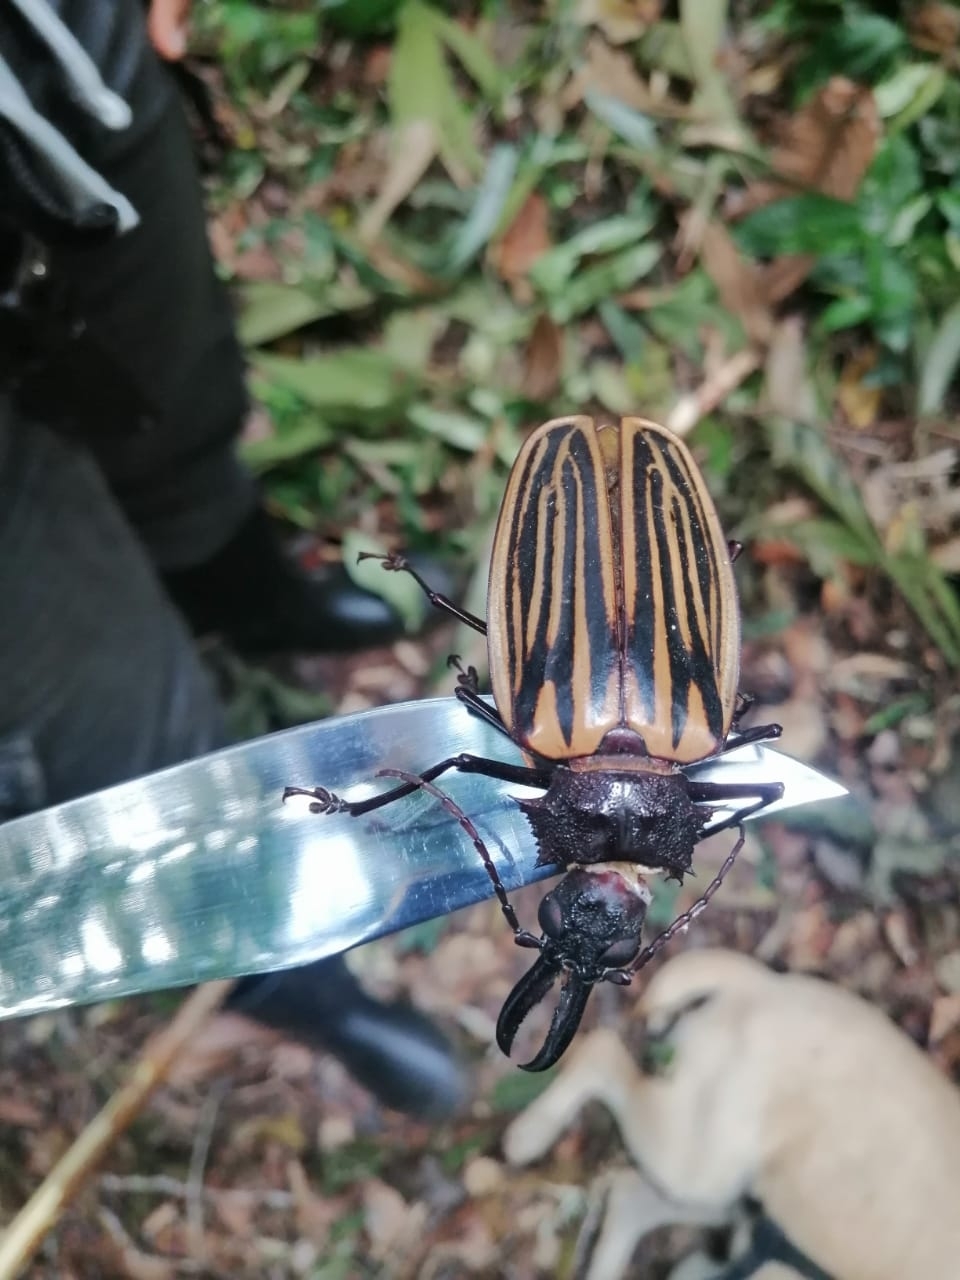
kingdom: Animalia
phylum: Arthropoda
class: Insecta
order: Coleoptera
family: Cerambycidae
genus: Macrodontia
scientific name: Macrodontia batesi
